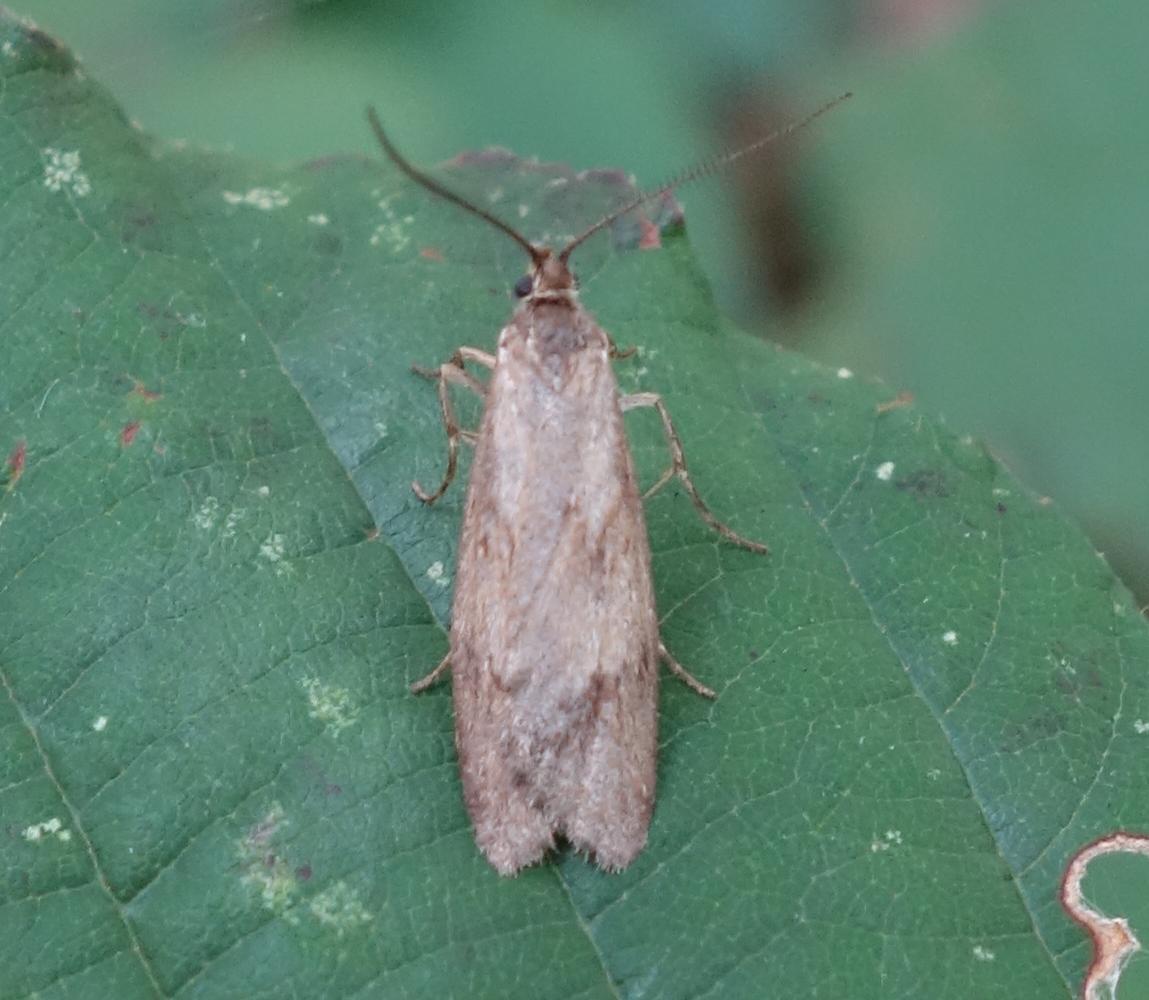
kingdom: Animalia
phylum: Arthropoda
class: Insecta
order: Lepidoptera
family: Lypusidae
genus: Diurnea
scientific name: Diurnea lipsiella
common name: November tubic
